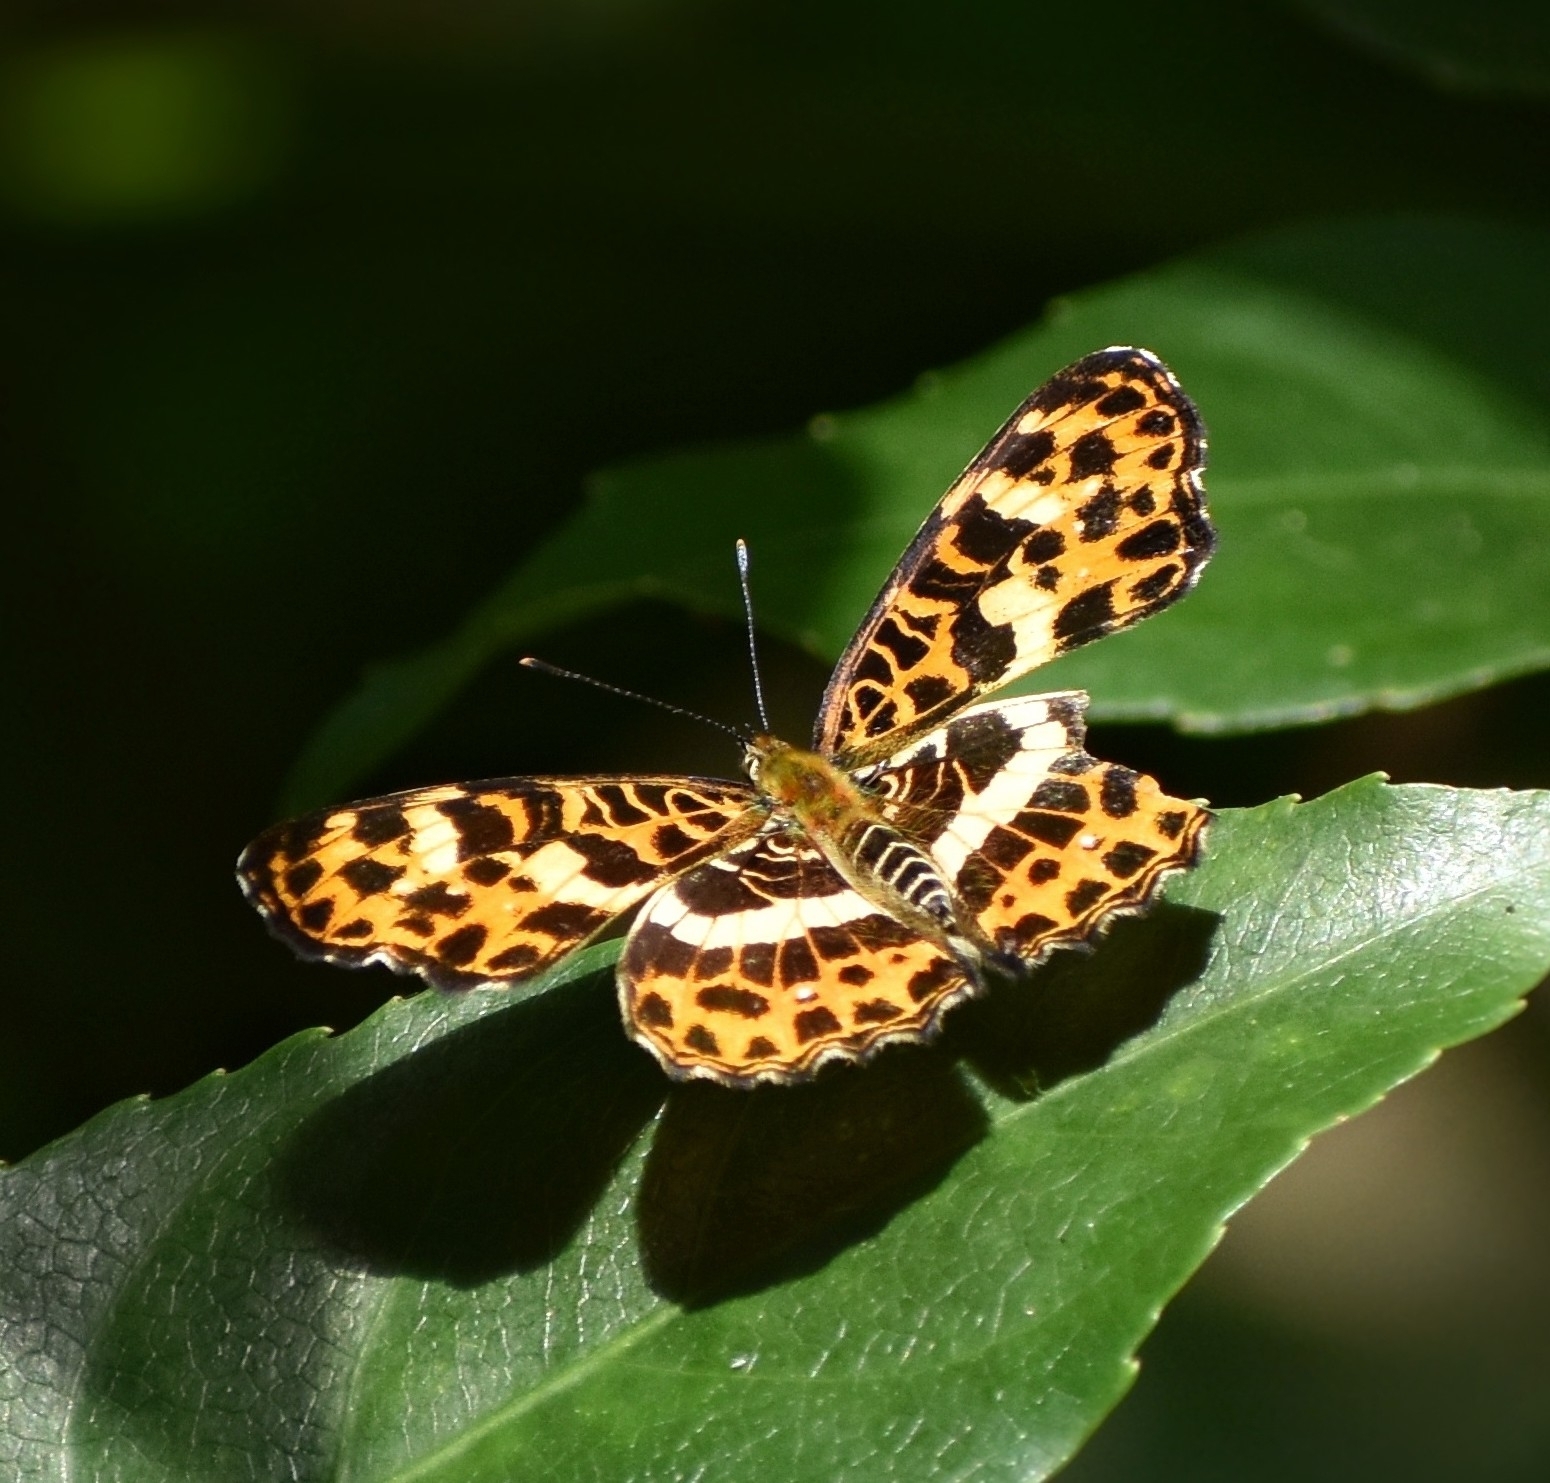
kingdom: Animalia
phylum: Arthropoda
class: Insecta
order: Lepidoptera
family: Nymphalidae
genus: Araschnia
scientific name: Araschnia doris
